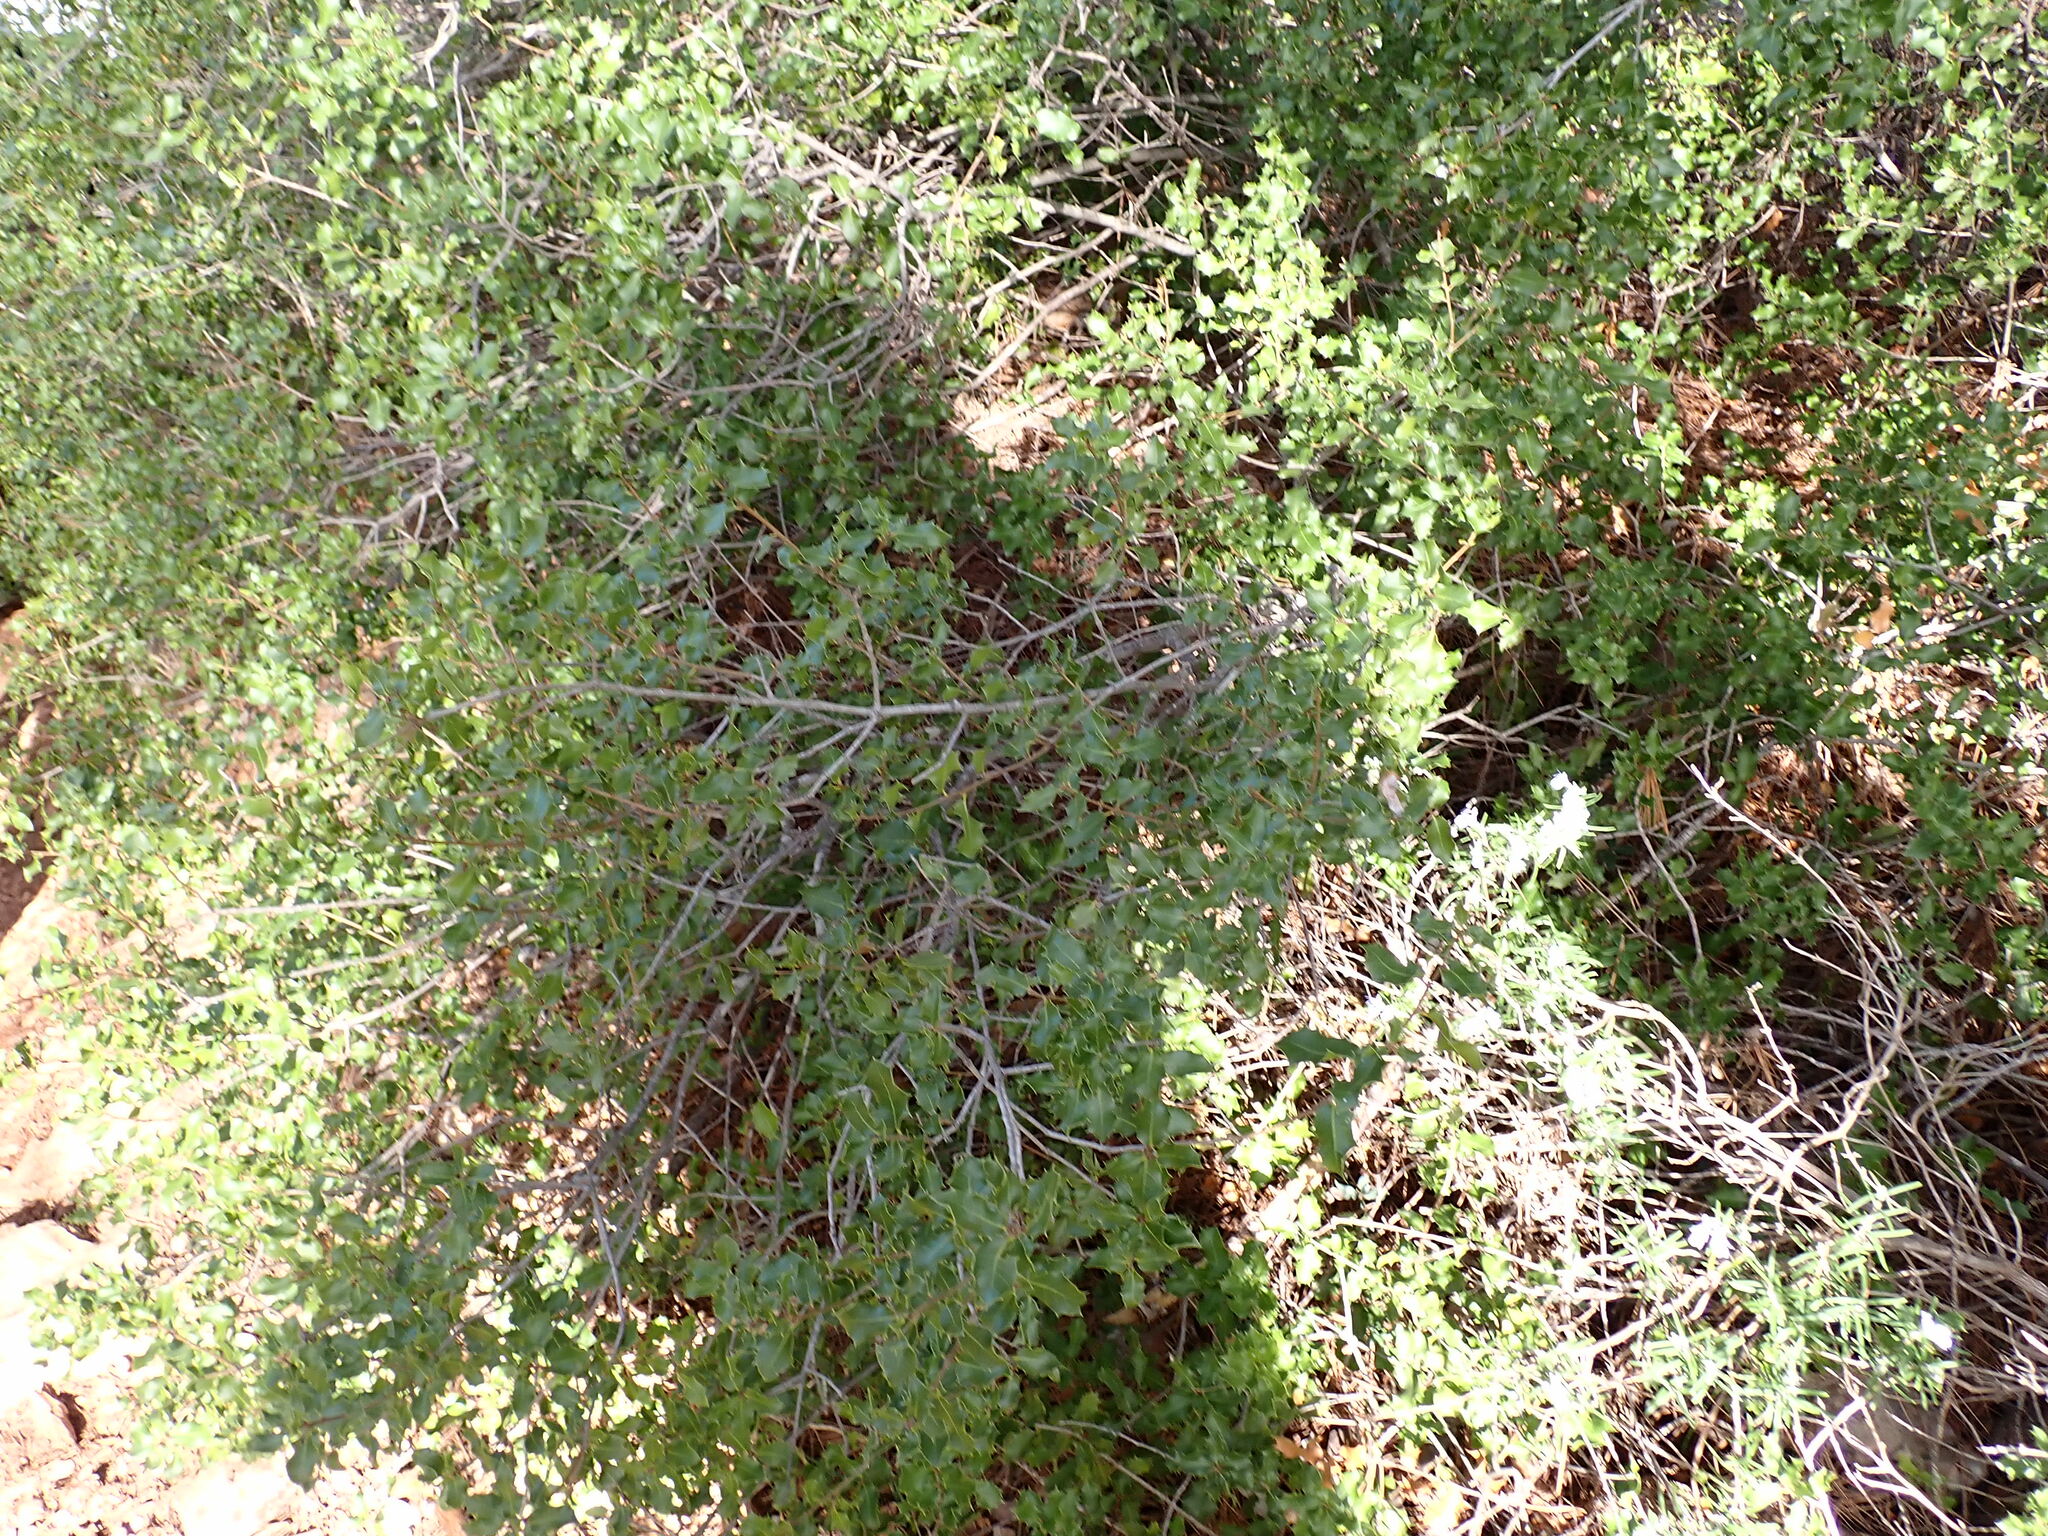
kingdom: Plantae
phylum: Tracheophyta
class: Magnoliopsida
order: Fagales
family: Fagaceae
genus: Quercus
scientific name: Quercus coccifera
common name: Kermes oak
